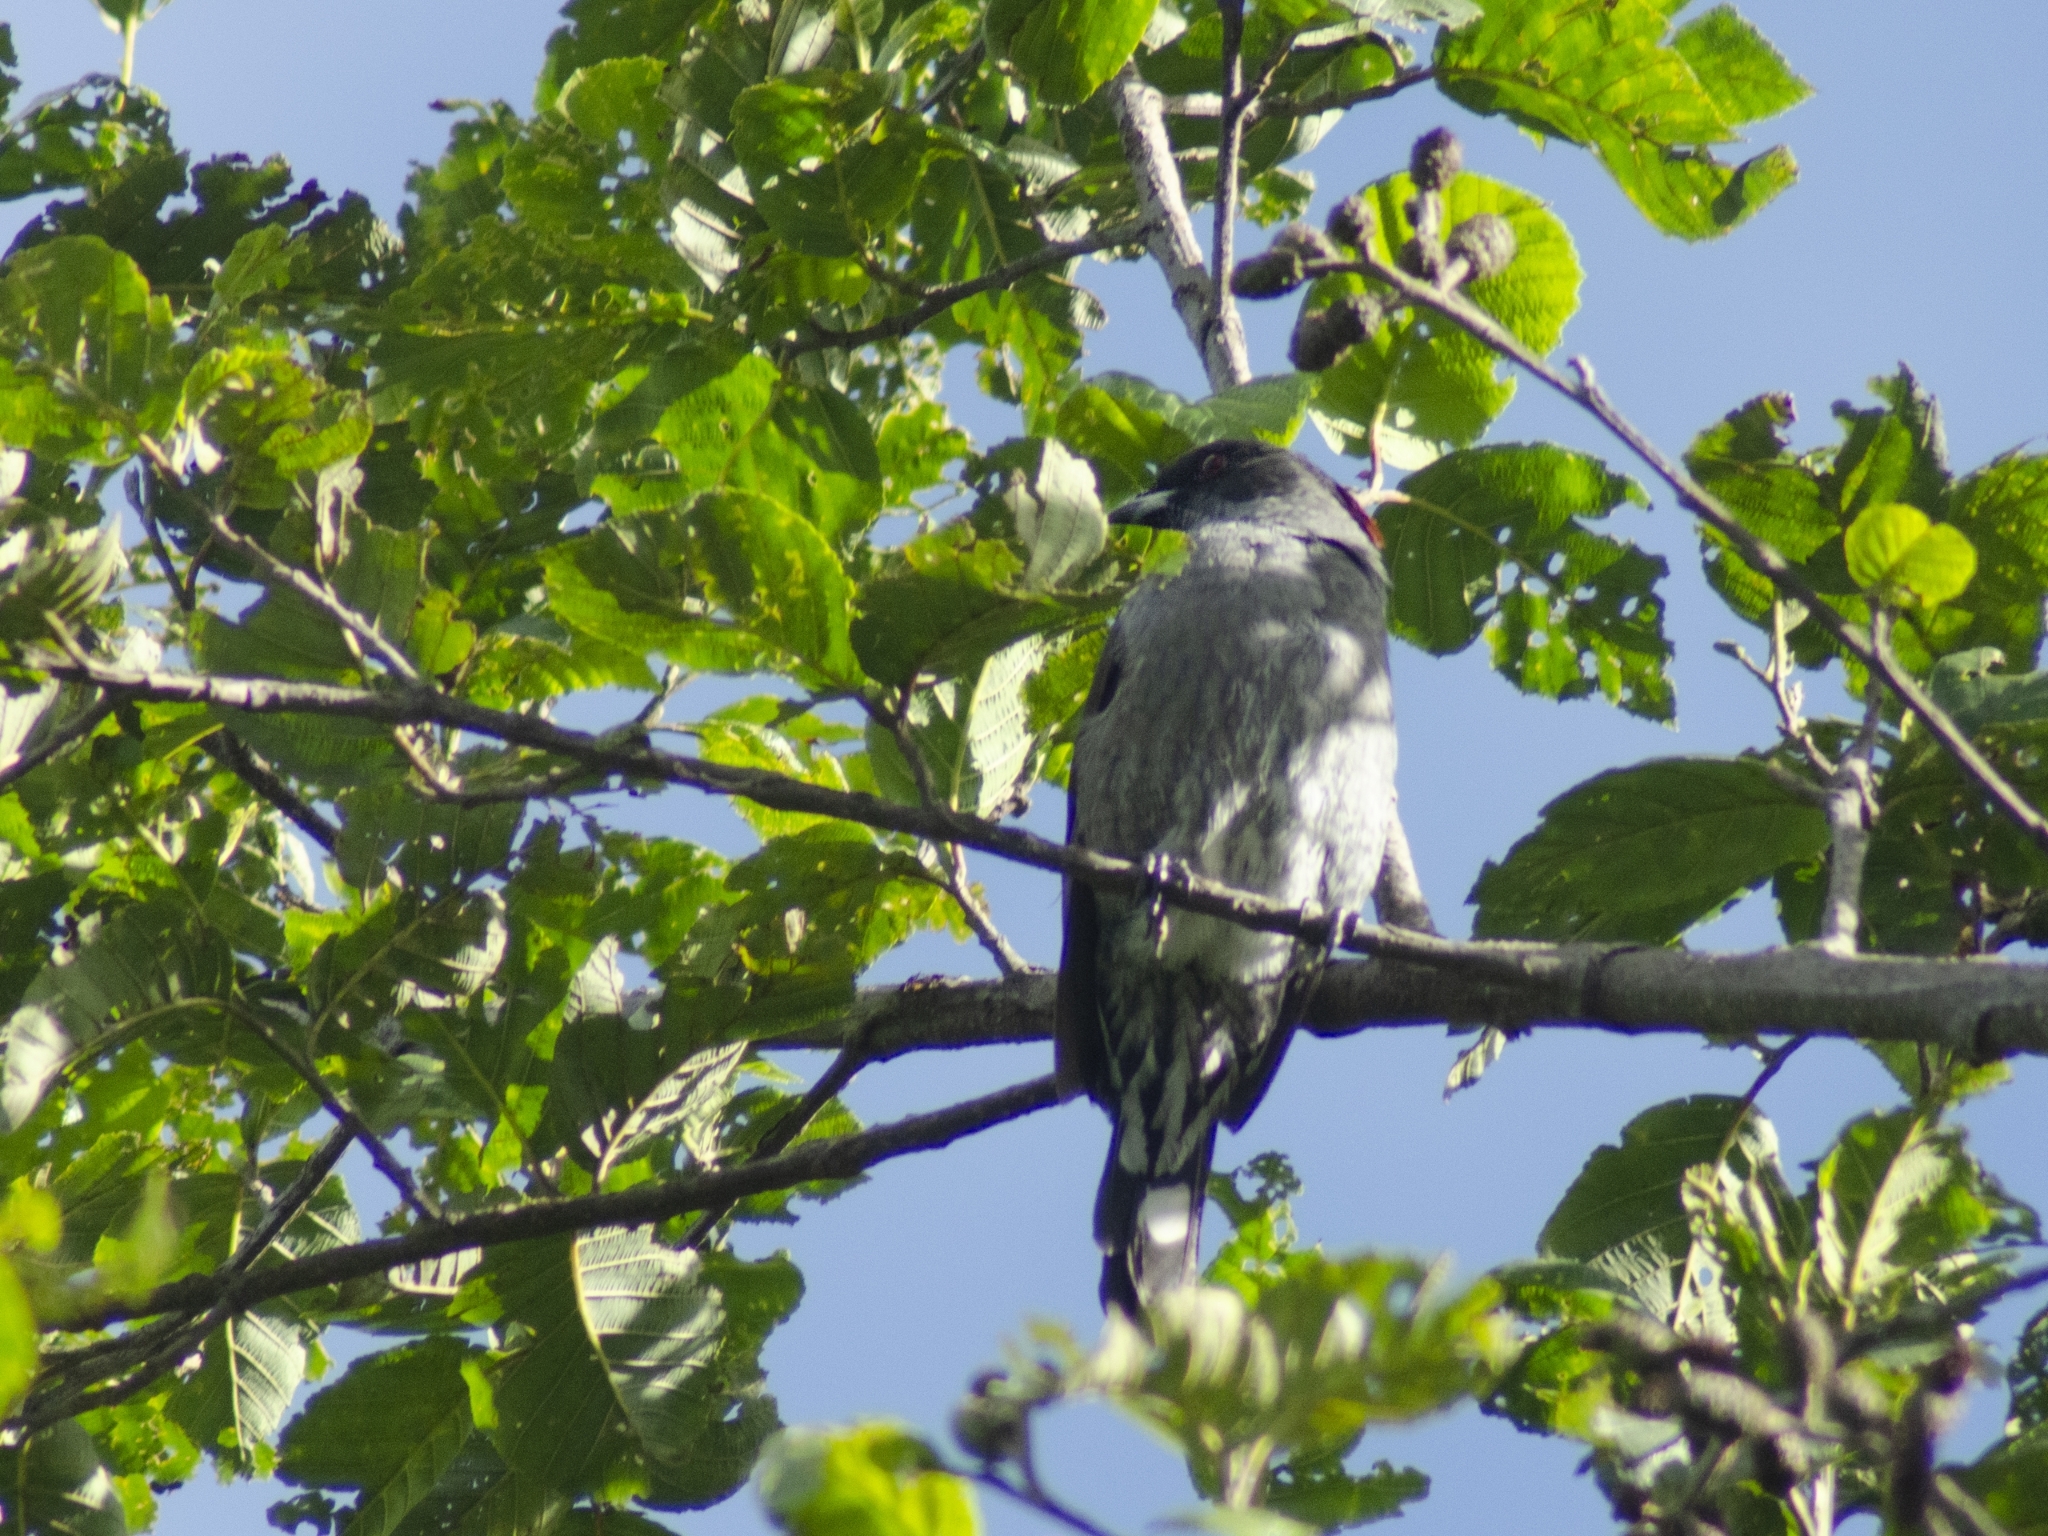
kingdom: Animalia
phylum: Chordata
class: Aves
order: Passeriformes
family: Cotingidae
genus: Ampelion
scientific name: Ampelion rubrocristatus
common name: Red-crested cotinga
